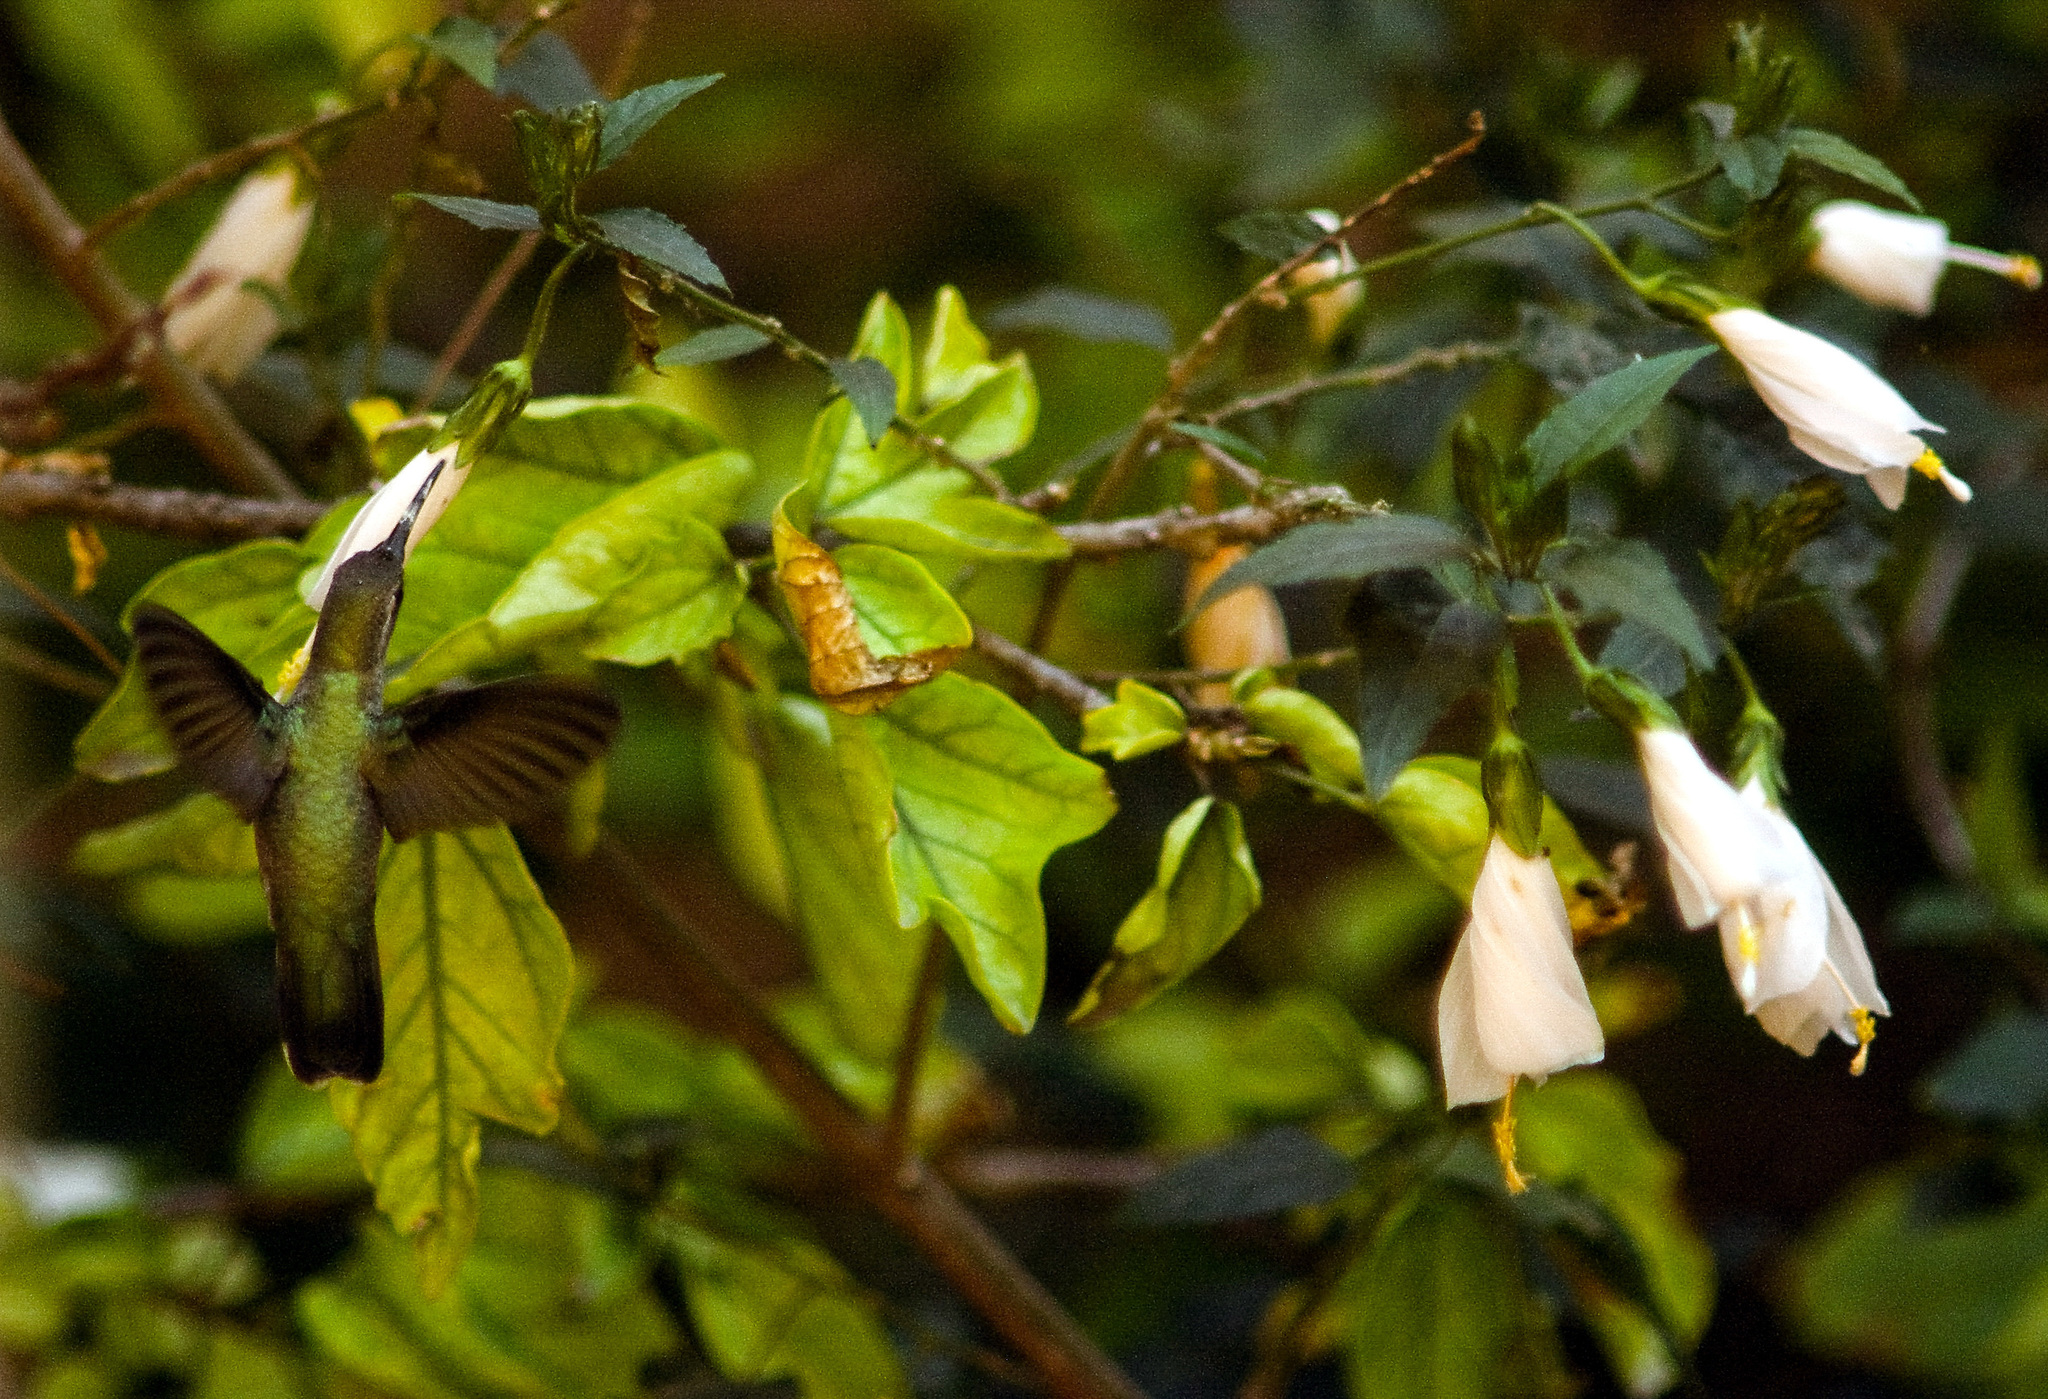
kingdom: Animalia
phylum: Chordata
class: Aves
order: Apodiformes
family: Trochilidae
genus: Cynanthus
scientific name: Cynanthus latirostris
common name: Broad-billed hummingbird
